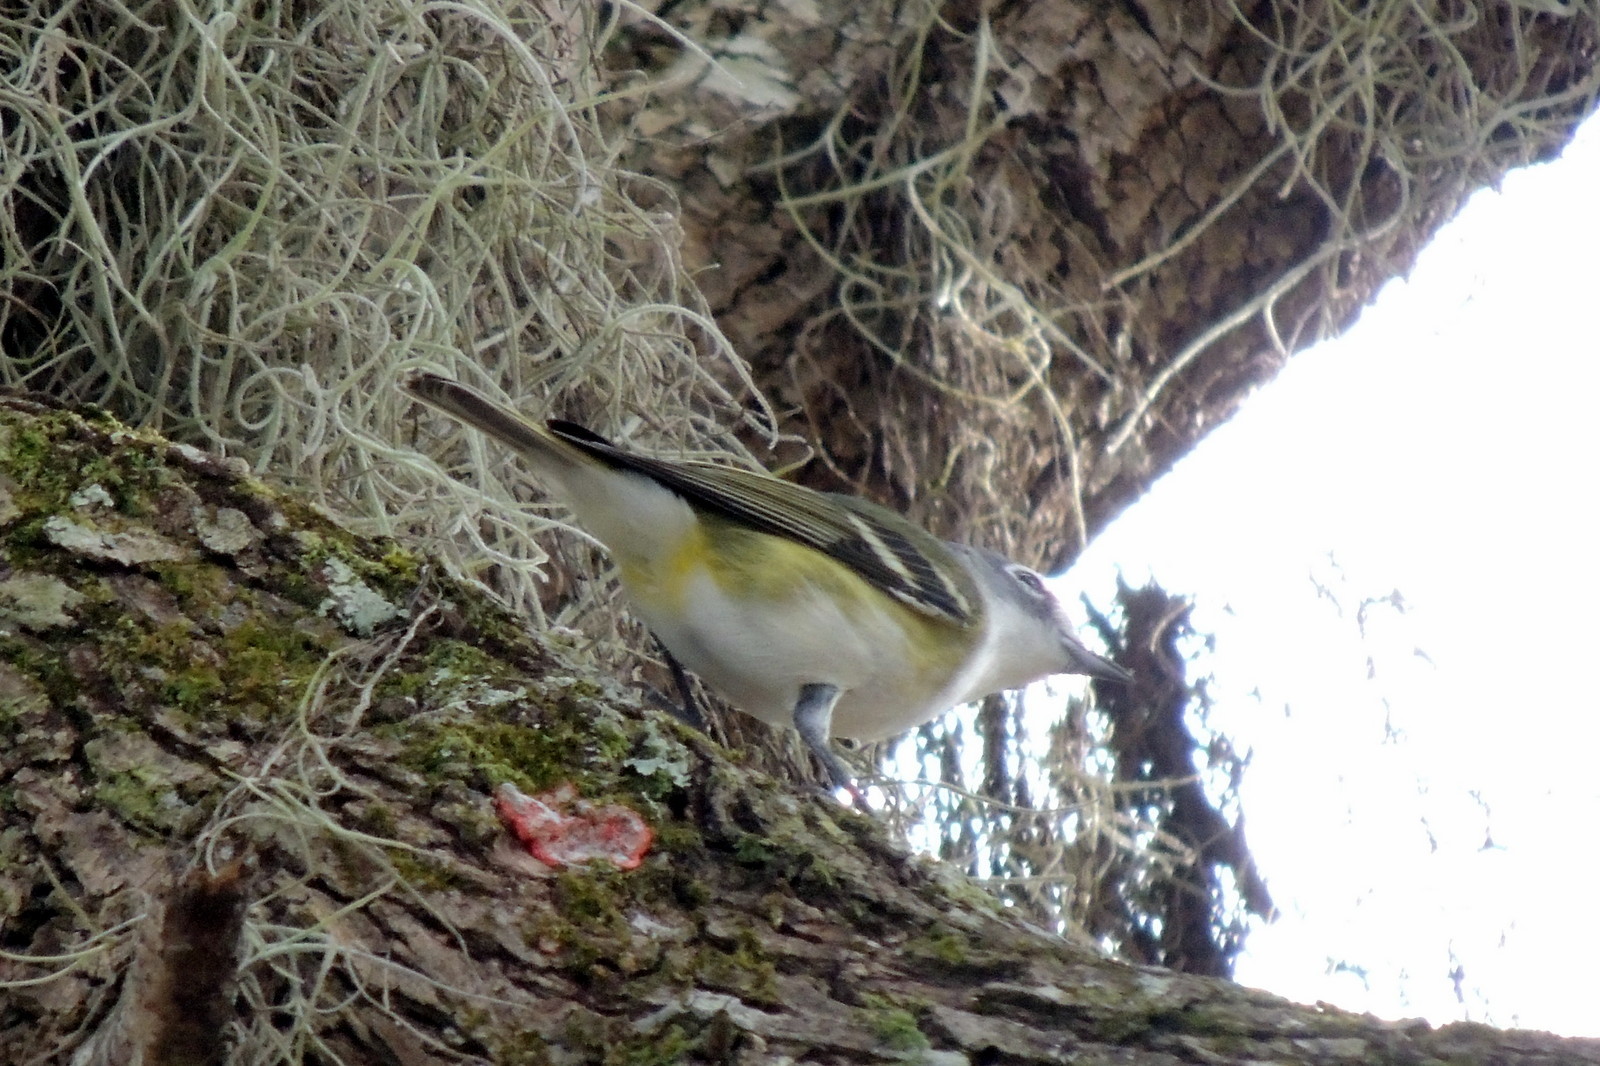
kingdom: Animalia
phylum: Chordata
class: Aves
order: Passeriformes
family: Vireonidae
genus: Vireo
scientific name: Vireo solitarius
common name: Blue-headed vireo
